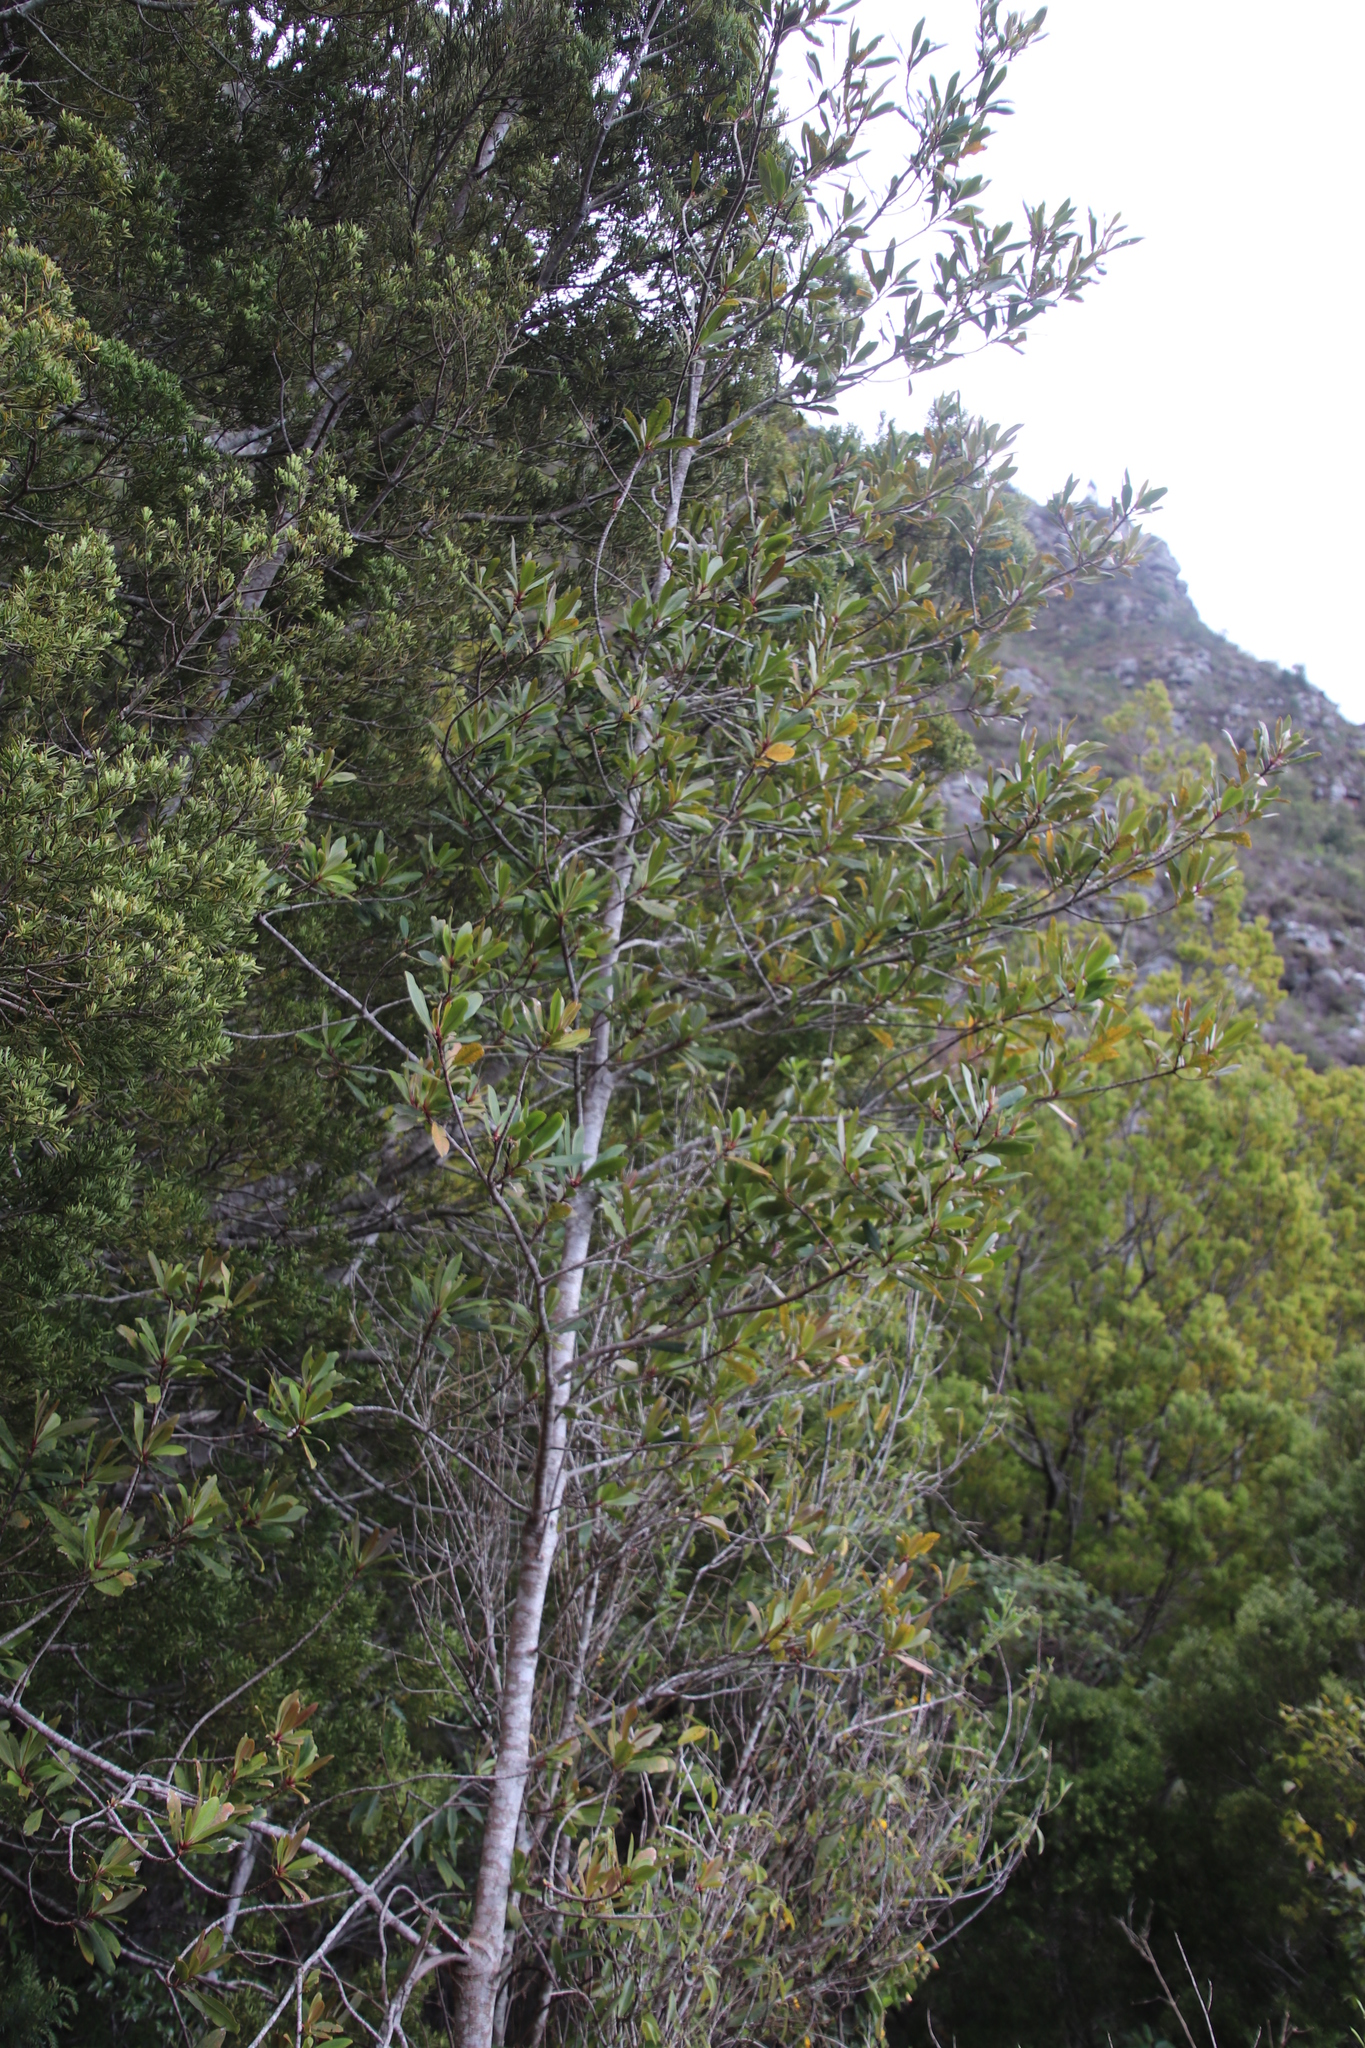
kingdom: Plantae
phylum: Tracheophyta
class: Magnoliopsida
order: Ericales
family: Primulaceae
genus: Myrsine
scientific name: Myrsine melanophloeos
